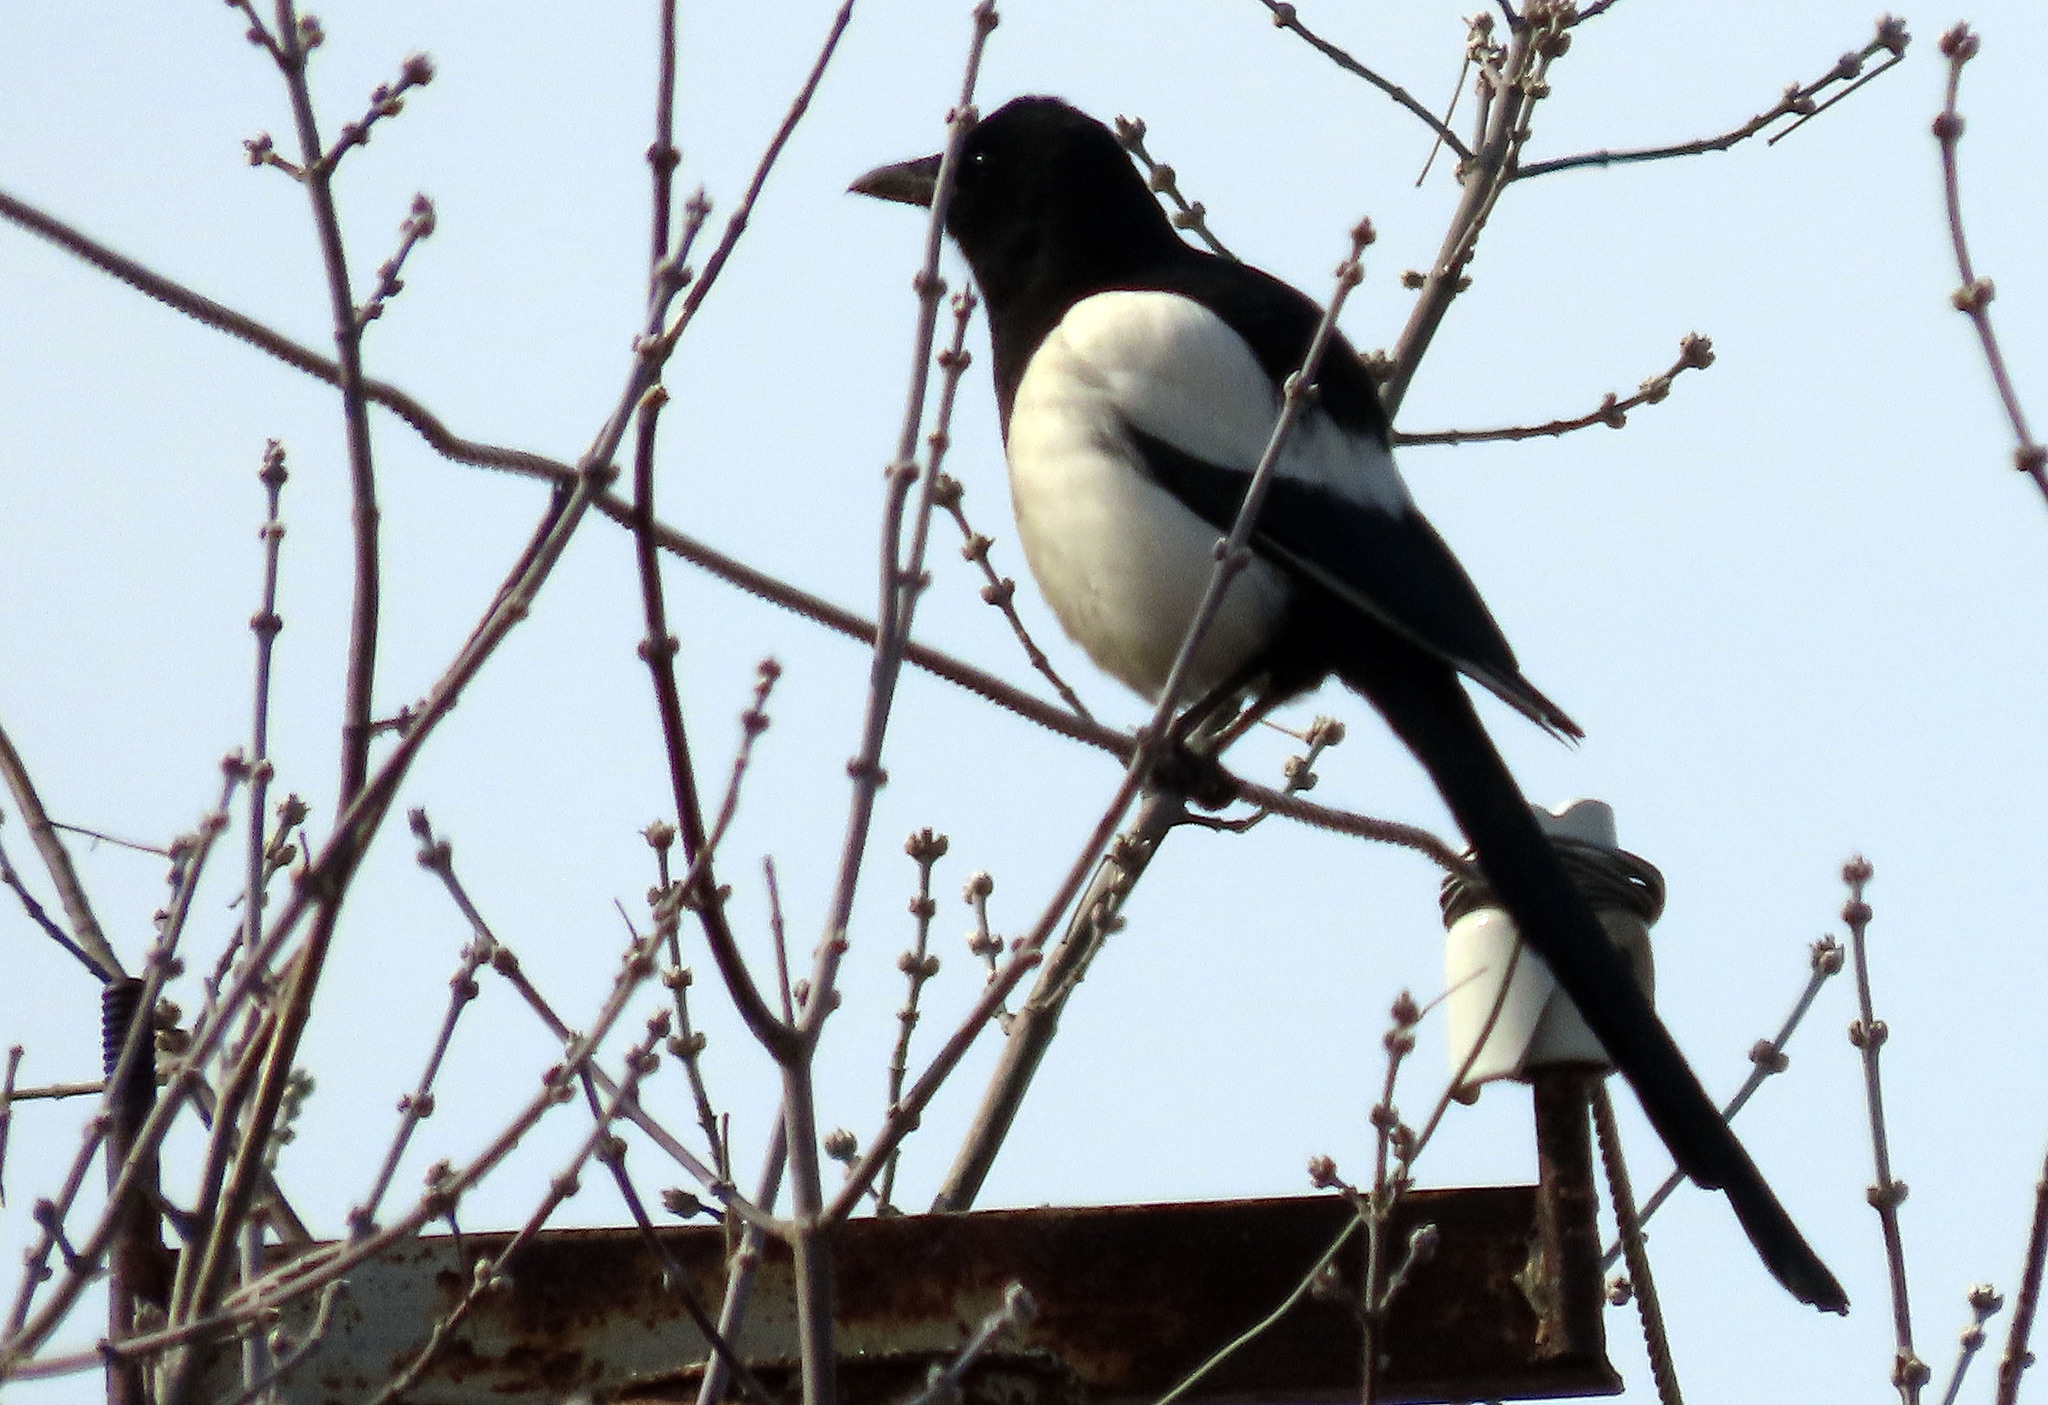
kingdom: Animalia
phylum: Chordata
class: Aves
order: Passeriformes
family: Corvidae
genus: Pica
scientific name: Pica pica
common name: Eurasian magpie
